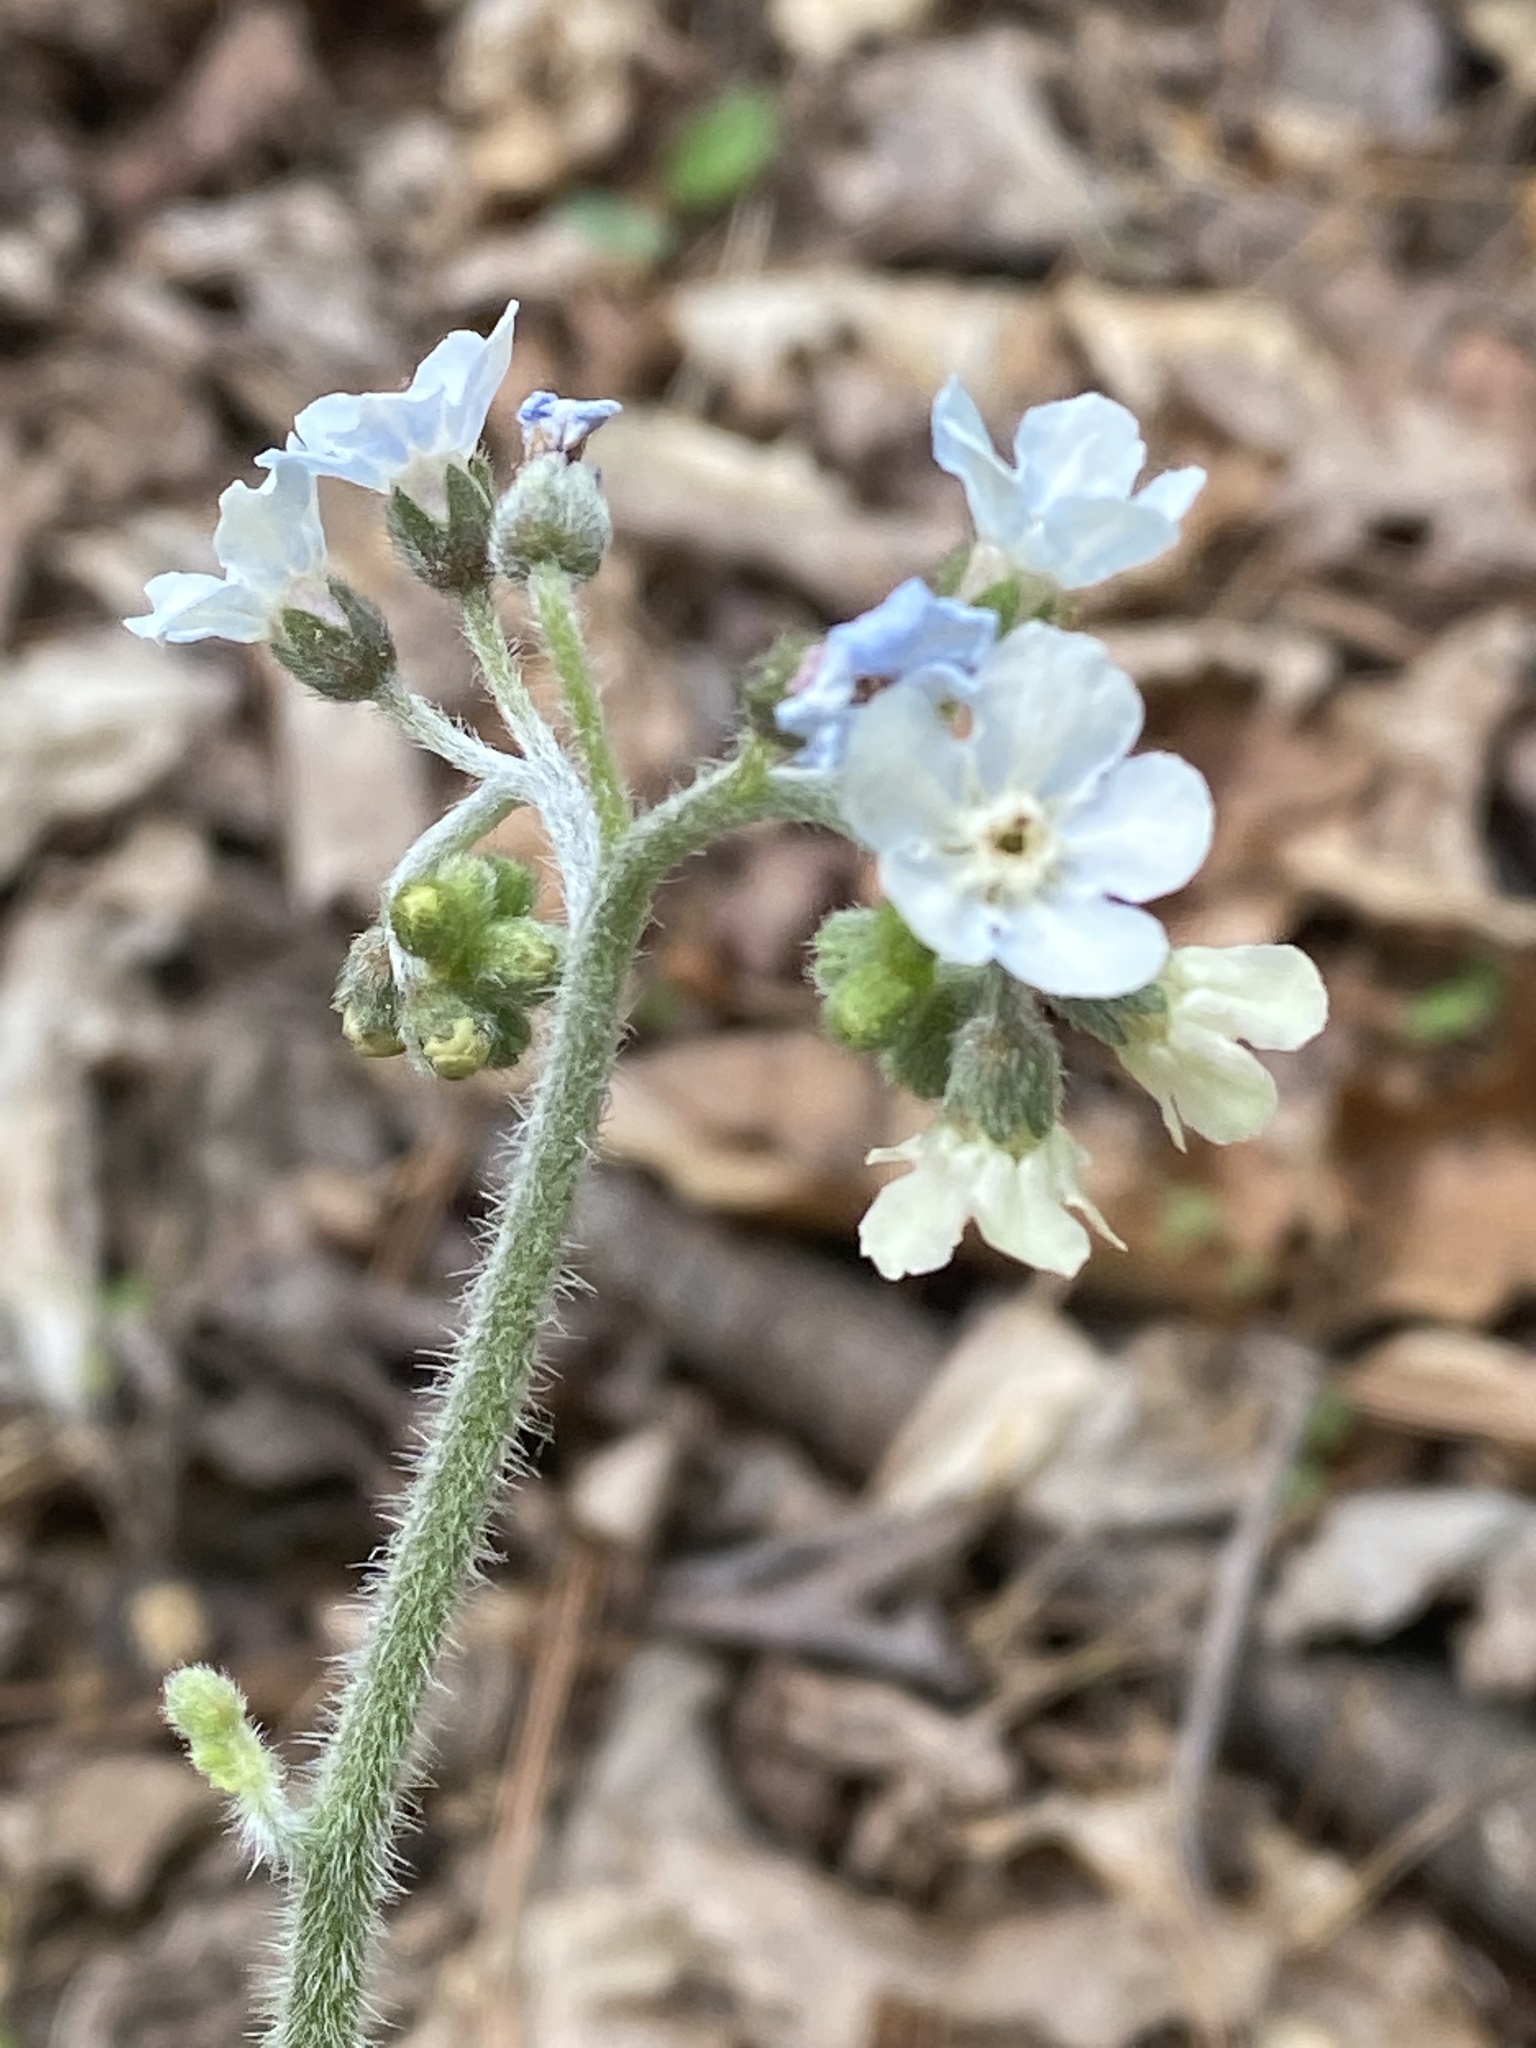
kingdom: Plantae
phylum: Tracheophyta
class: Magnoliopsida
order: Boraginales
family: Boraginaceae
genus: Andersonglossum
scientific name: Andersonglossum virginianum
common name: Wild comfrey
